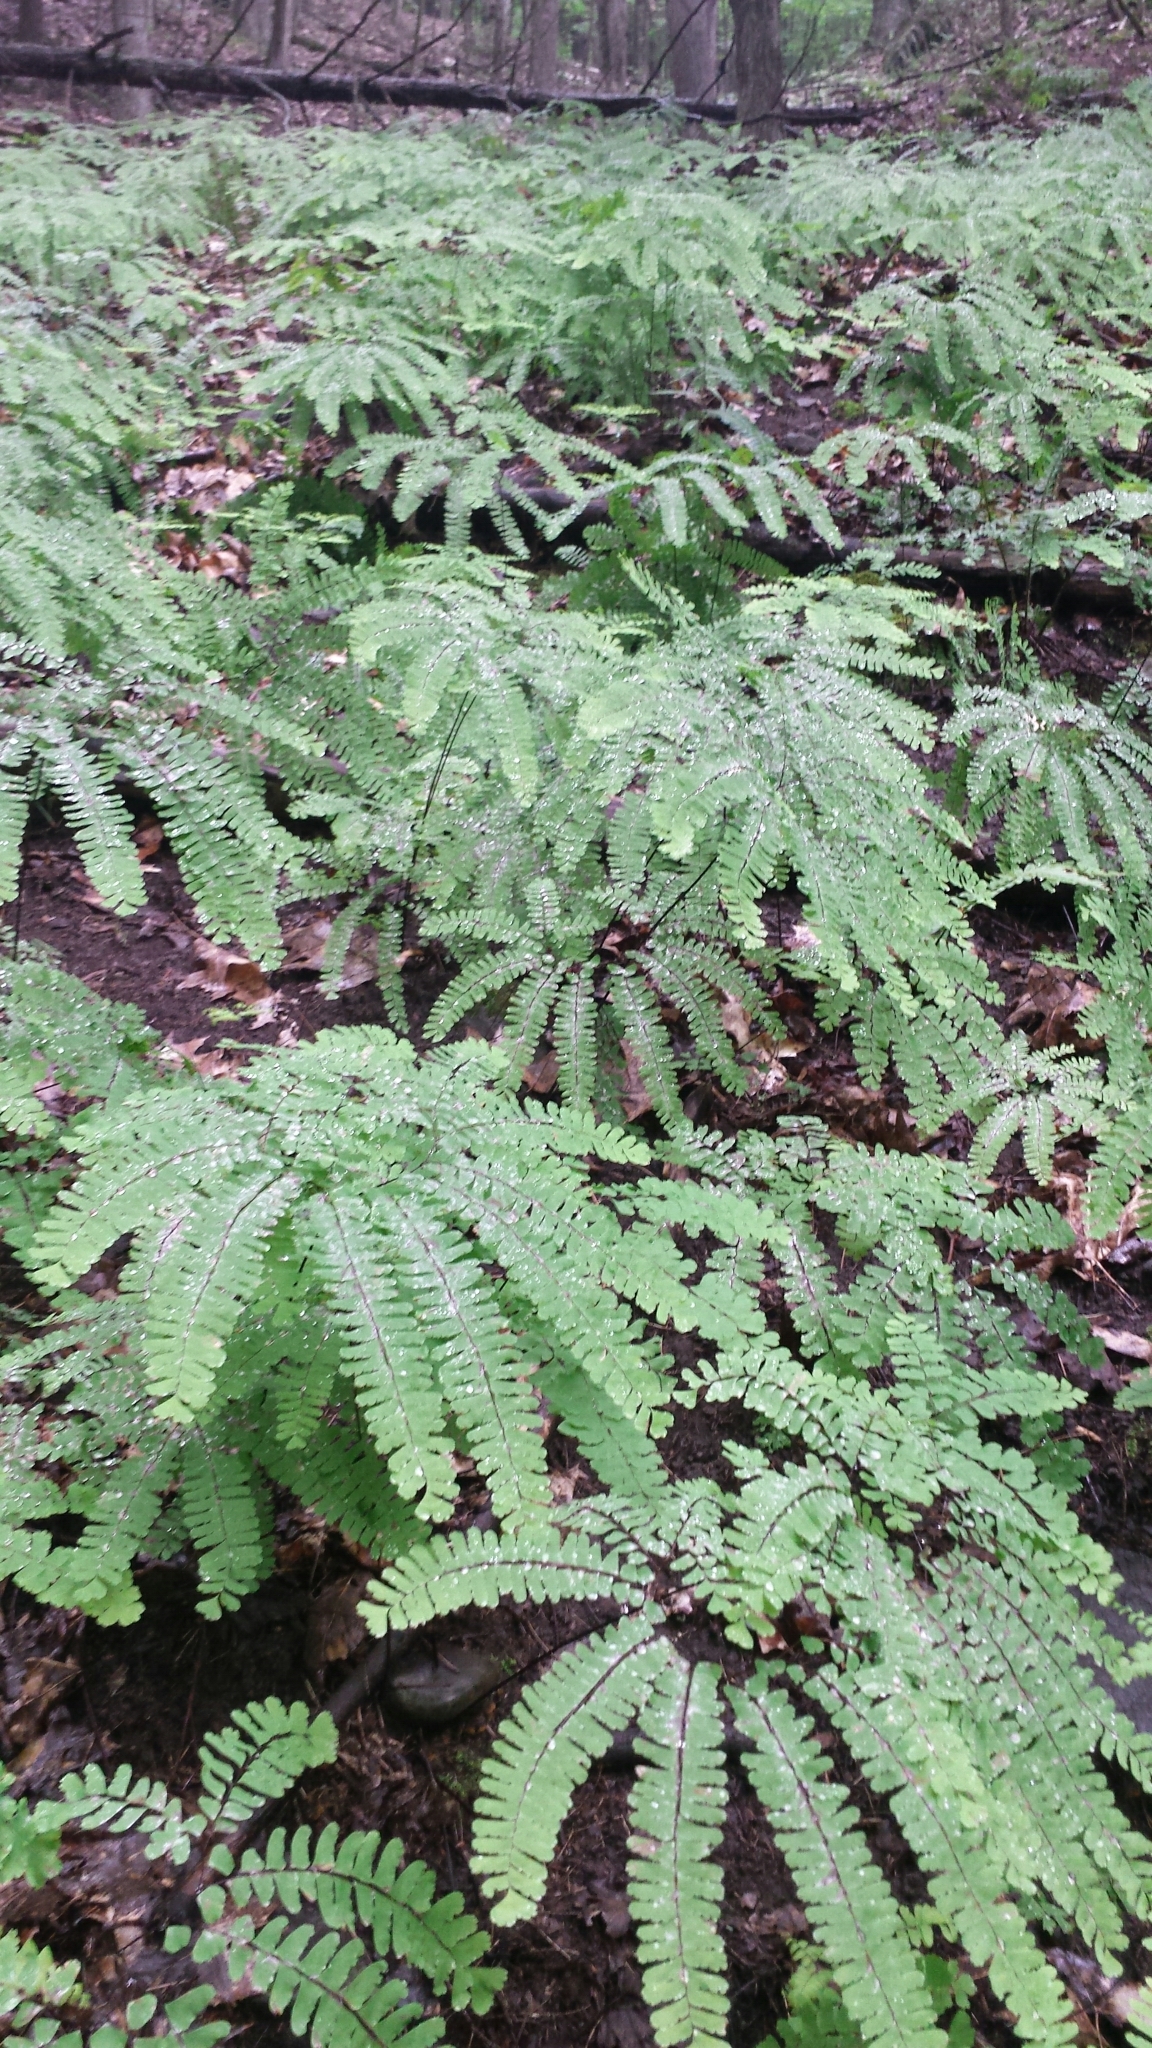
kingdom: Plantae
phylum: Tracheophyta
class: Polypodiopsida
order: Polypodiales
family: Pteridaceae
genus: Adiantum
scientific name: Adiantum pedatum
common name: Five-finger fern
